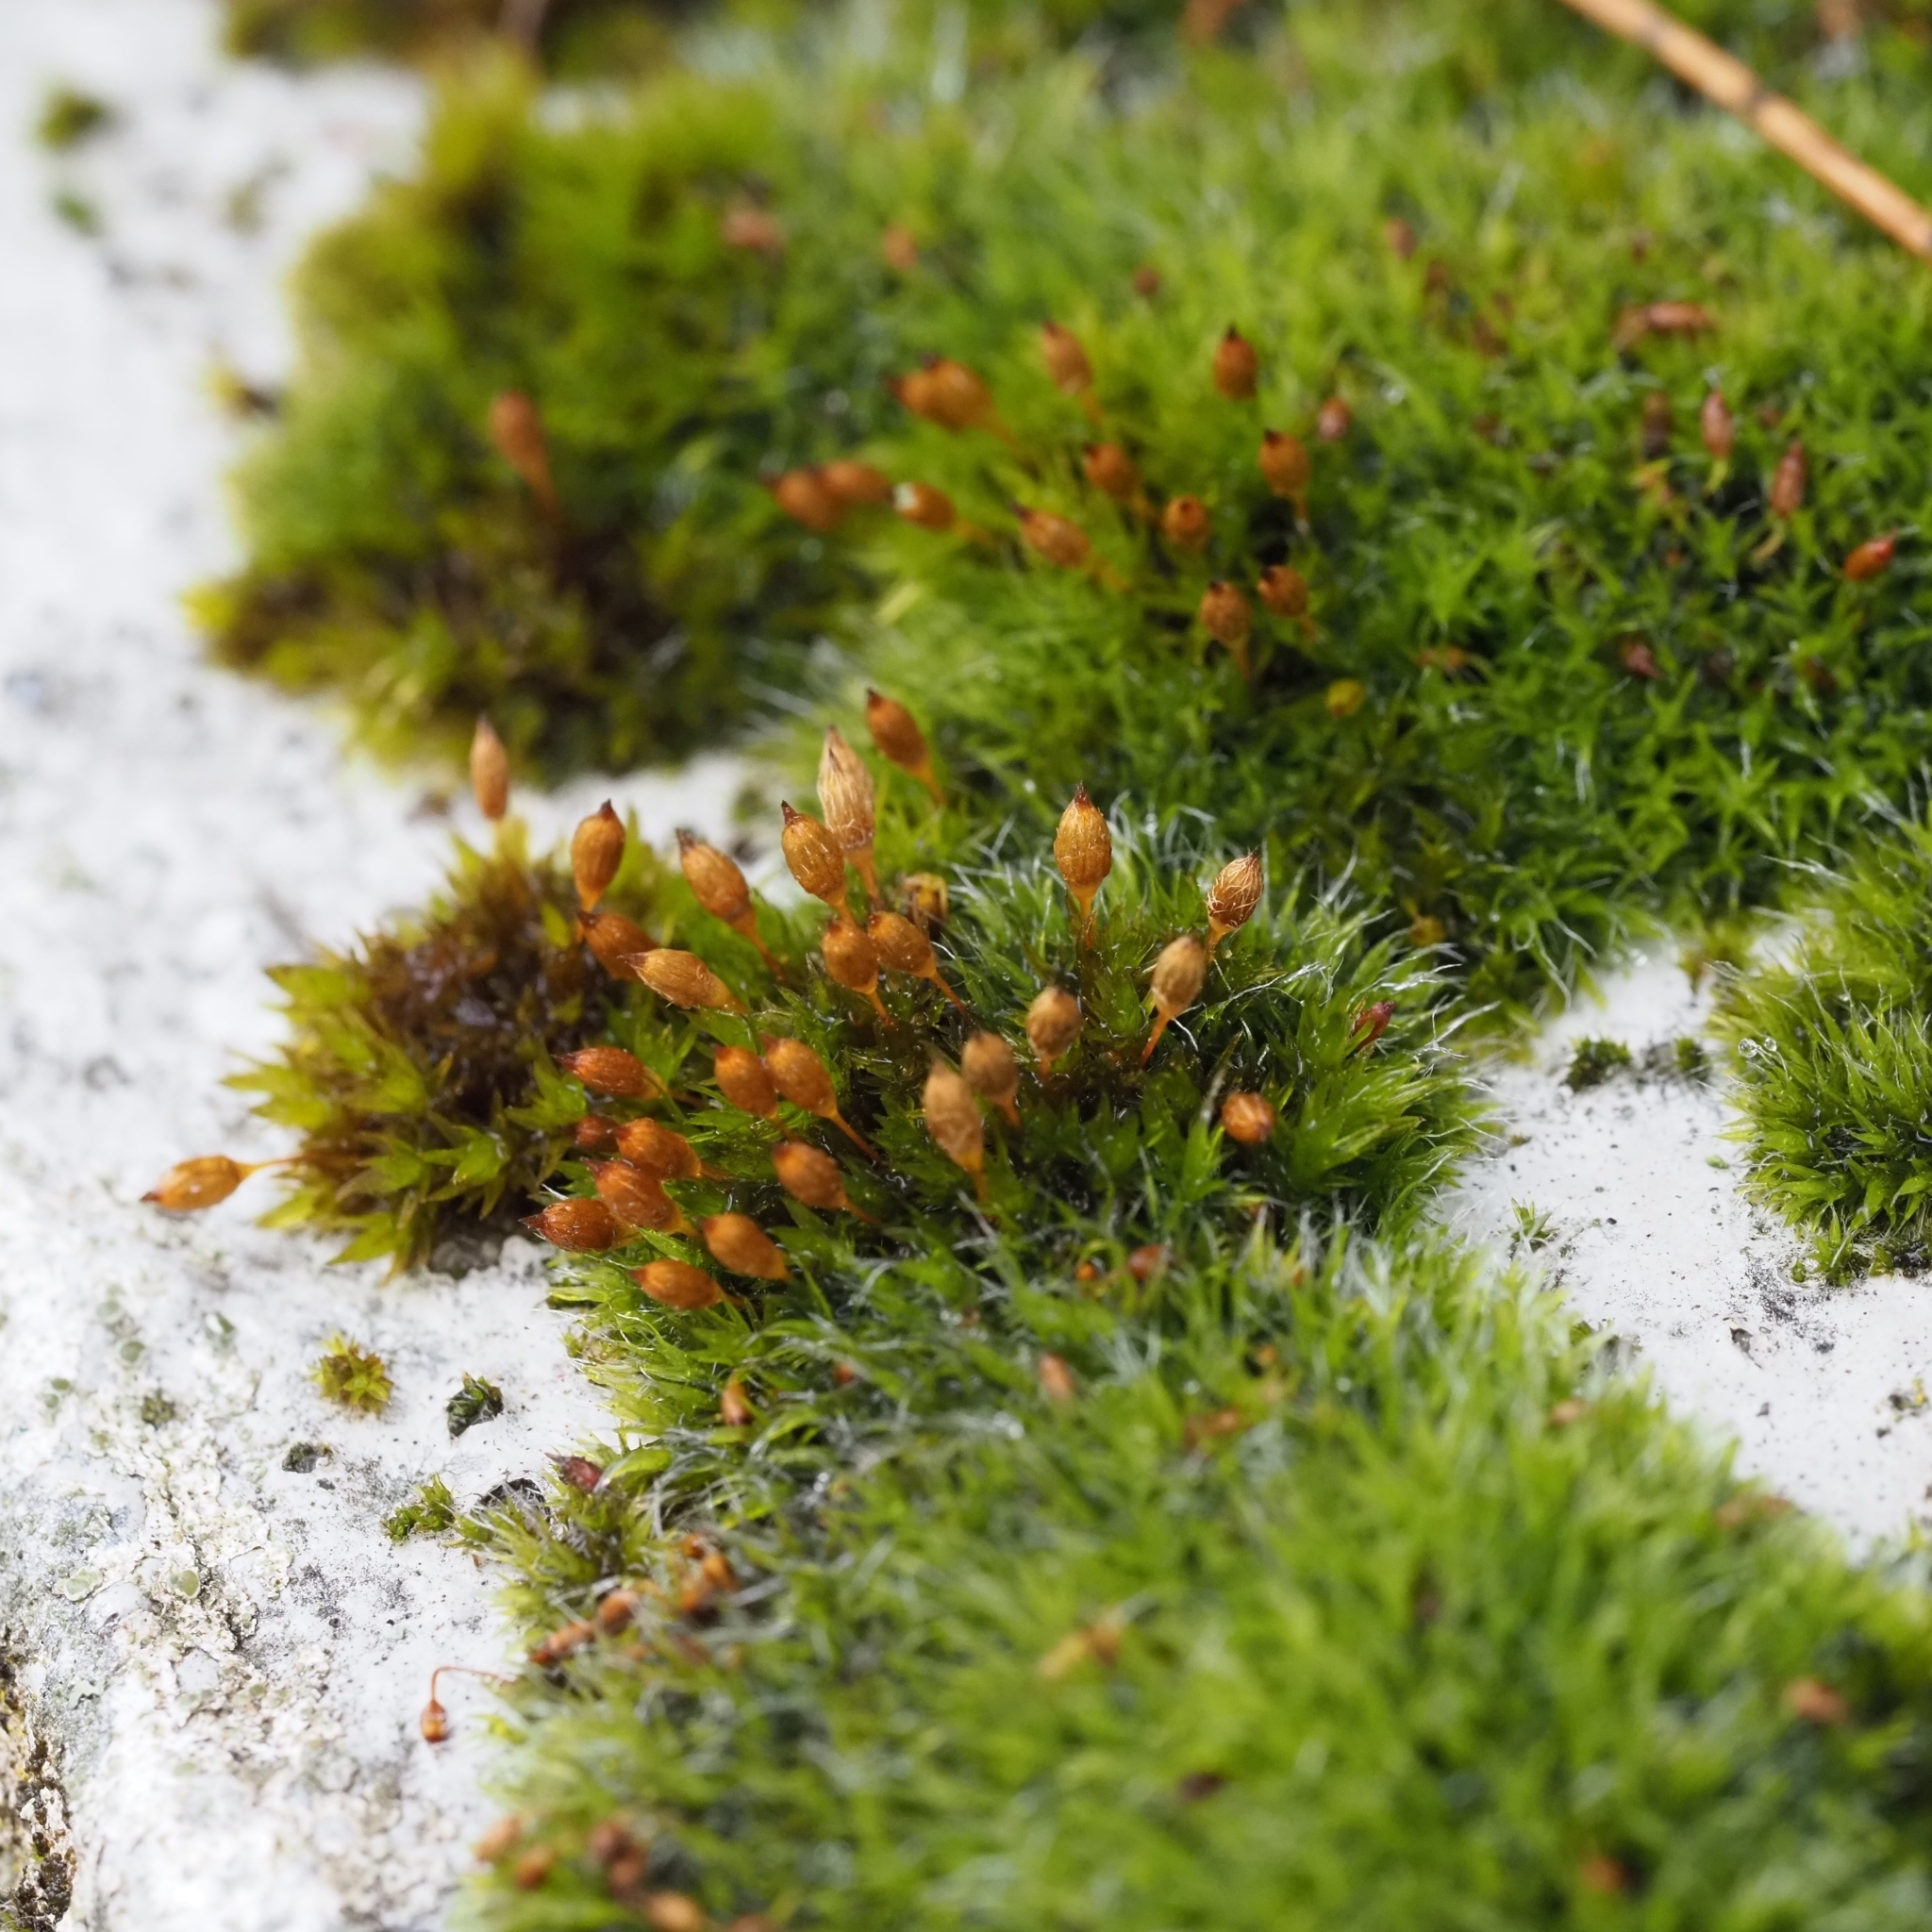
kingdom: Plantae
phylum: Bryophyta
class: Bryopsida
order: Orthotrichales
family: Orthotrichaceae
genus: Orthotrichum
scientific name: Orthotrichum anomalum
